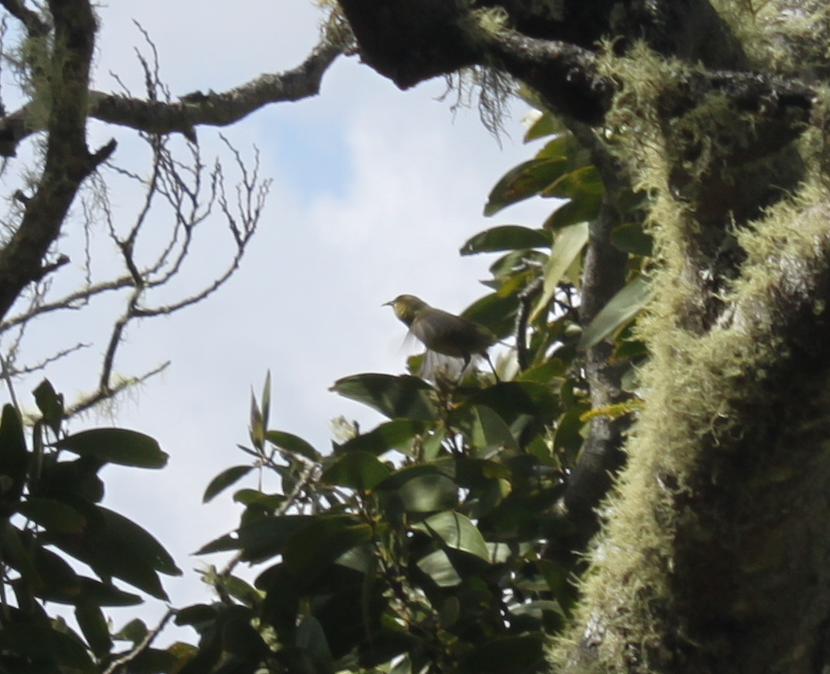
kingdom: Animalia
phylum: Chordata
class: Aves
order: Passeriformes
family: Fringillidae
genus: Chlorodrepanis
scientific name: Chlorodrepanis virens
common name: Hawaii amakihi
